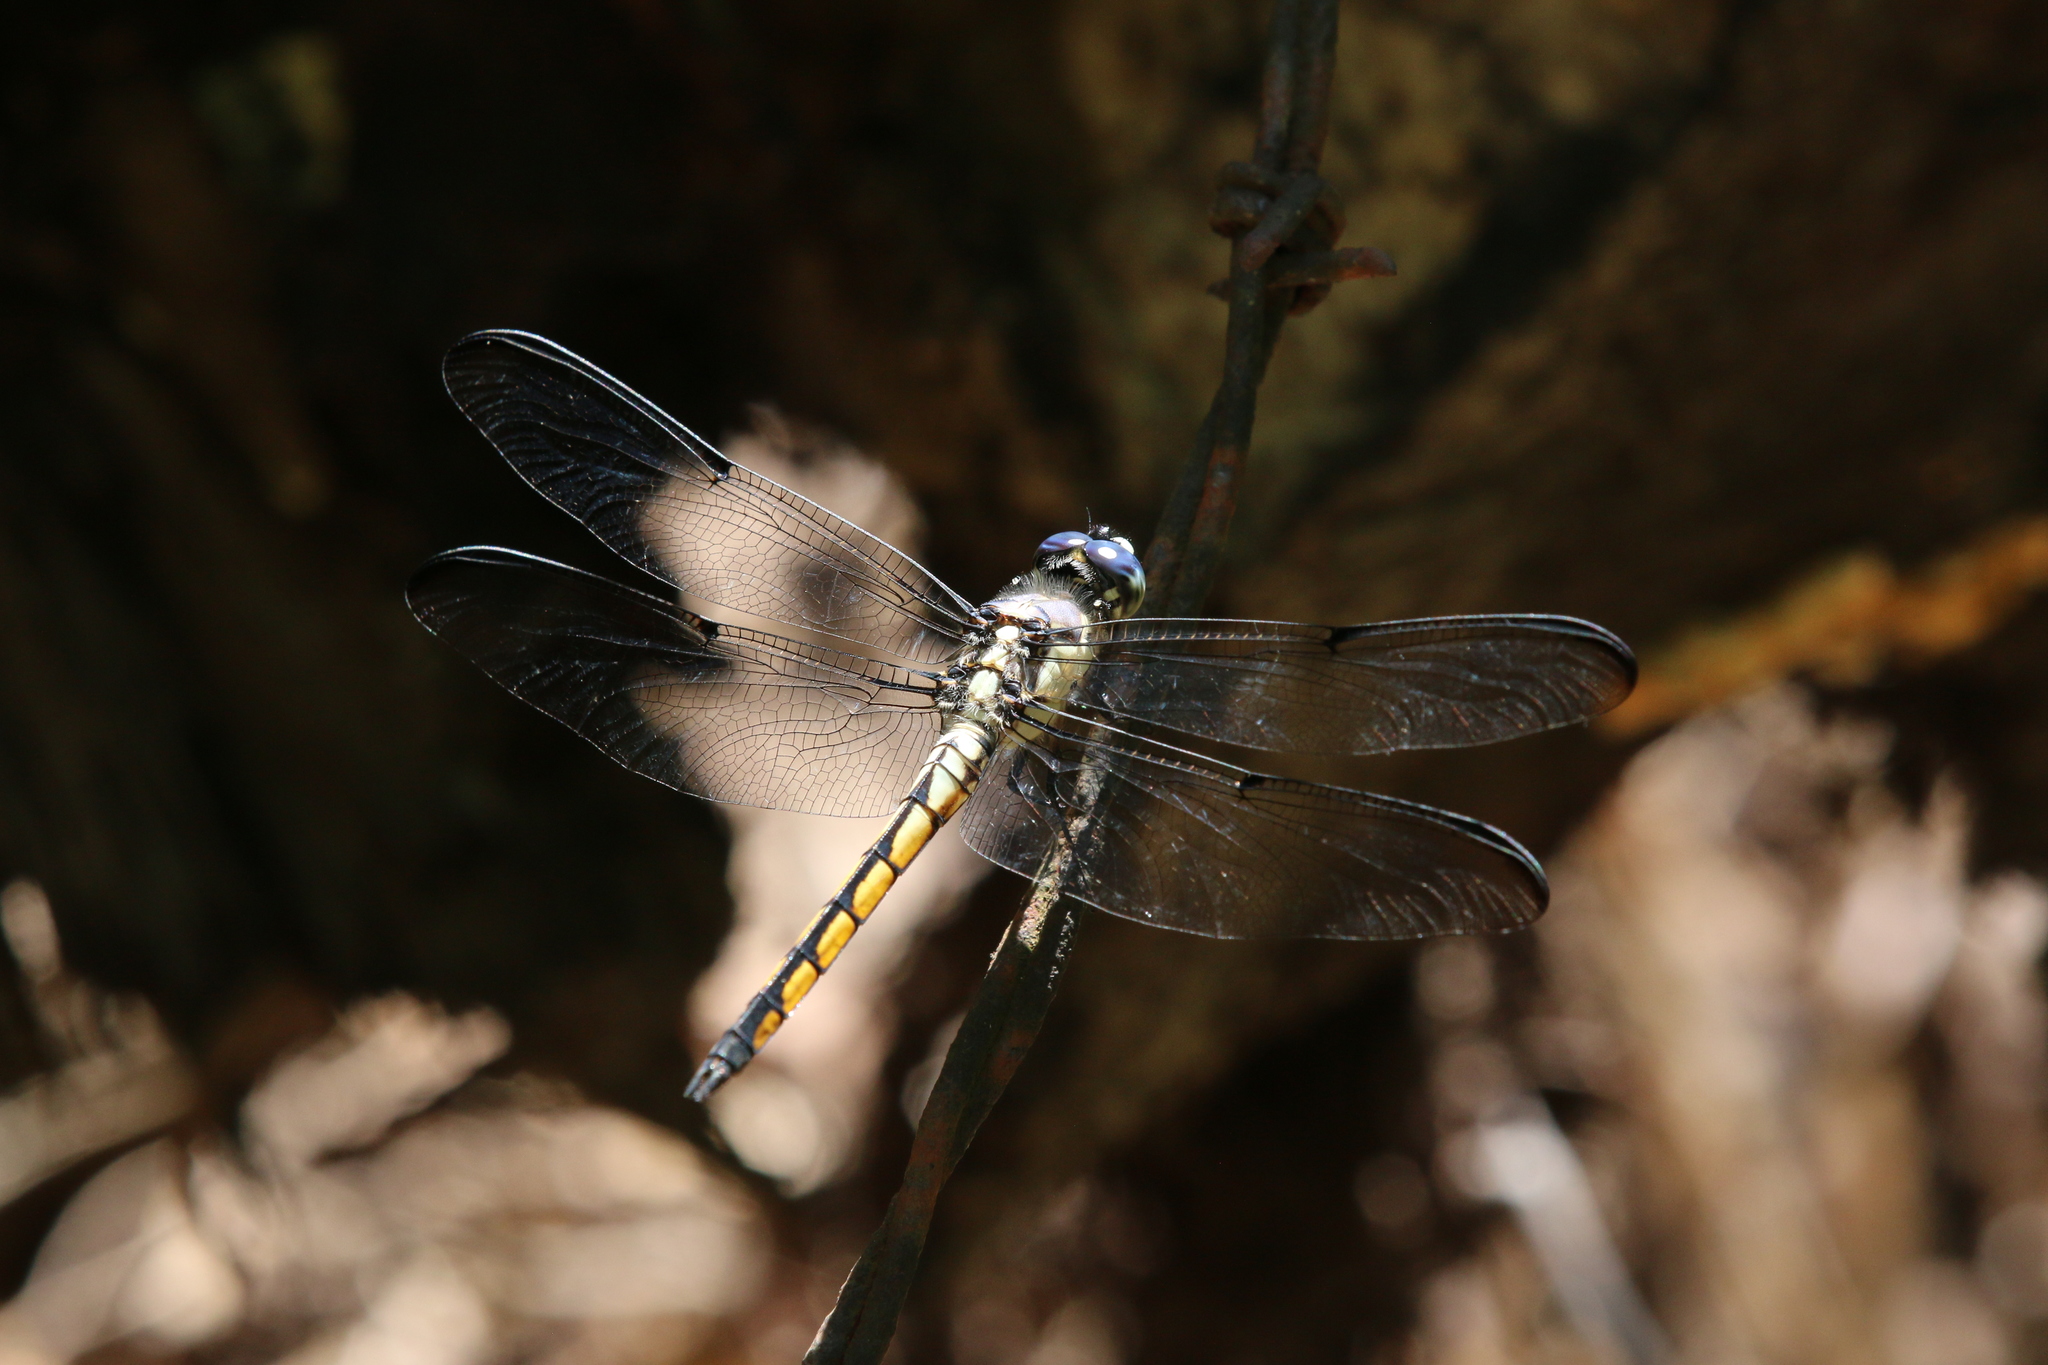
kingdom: Animalia
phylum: Arthropoda
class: Insecta
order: Odonata
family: Libellulidae
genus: Libellula
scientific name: Libellula vibrans
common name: Great blue skimmer
